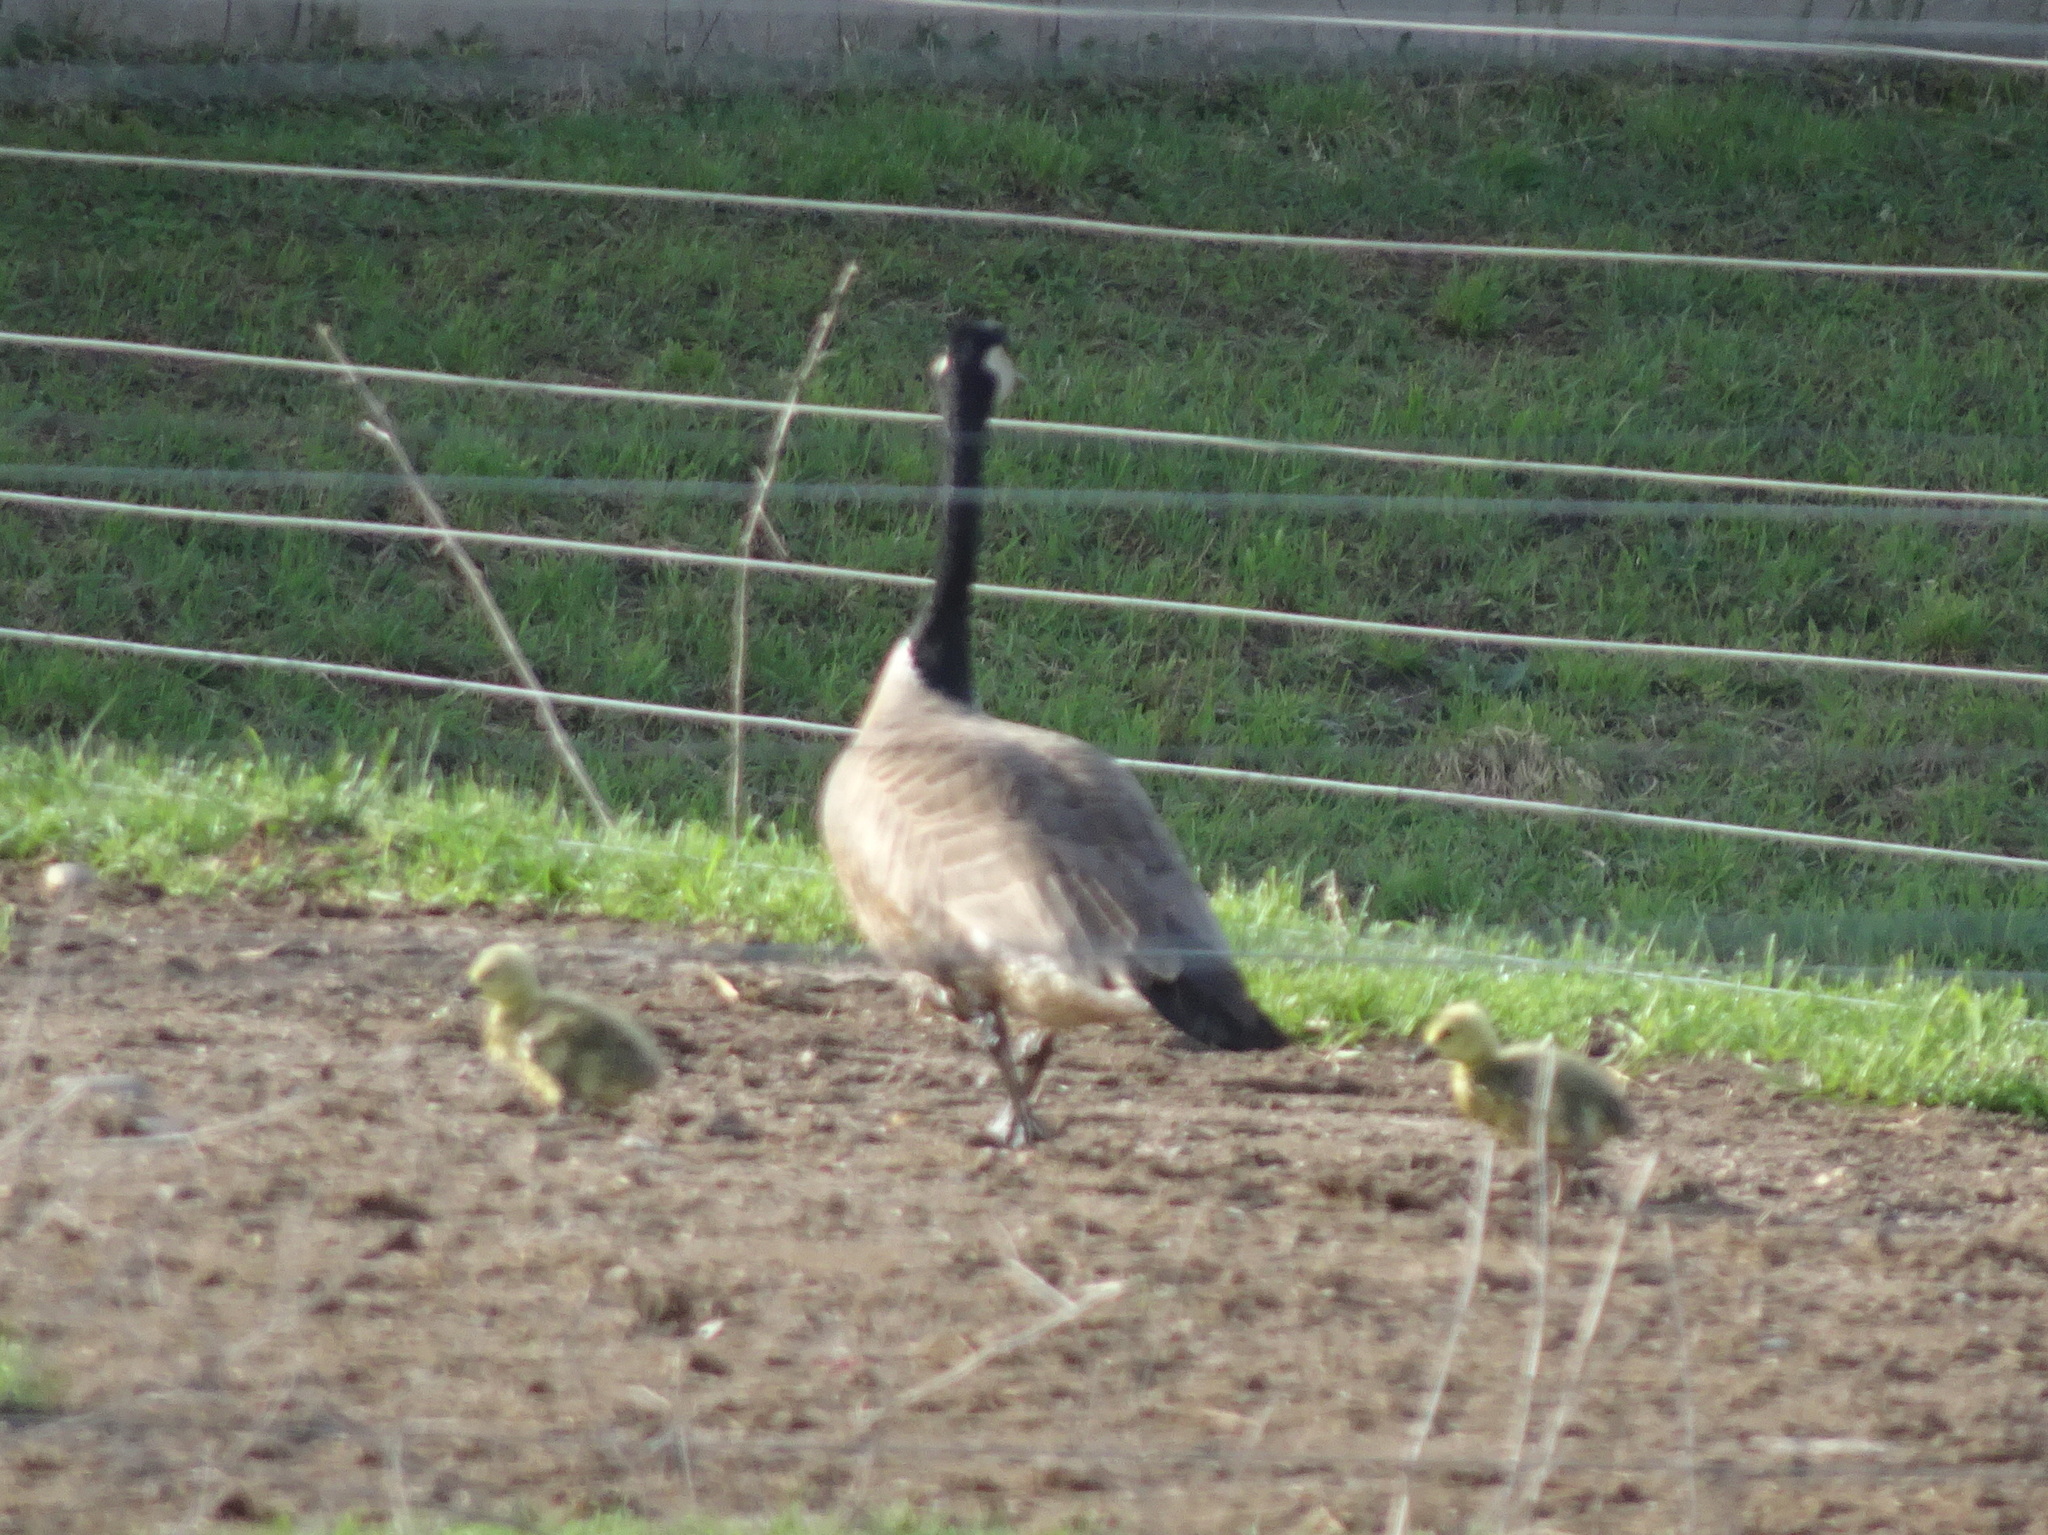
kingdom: Animalia
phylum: Chordata
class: Aves
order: Anseriformes
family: Anatidae
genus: Branta
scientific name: Branta canadensis
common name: Canada goose
